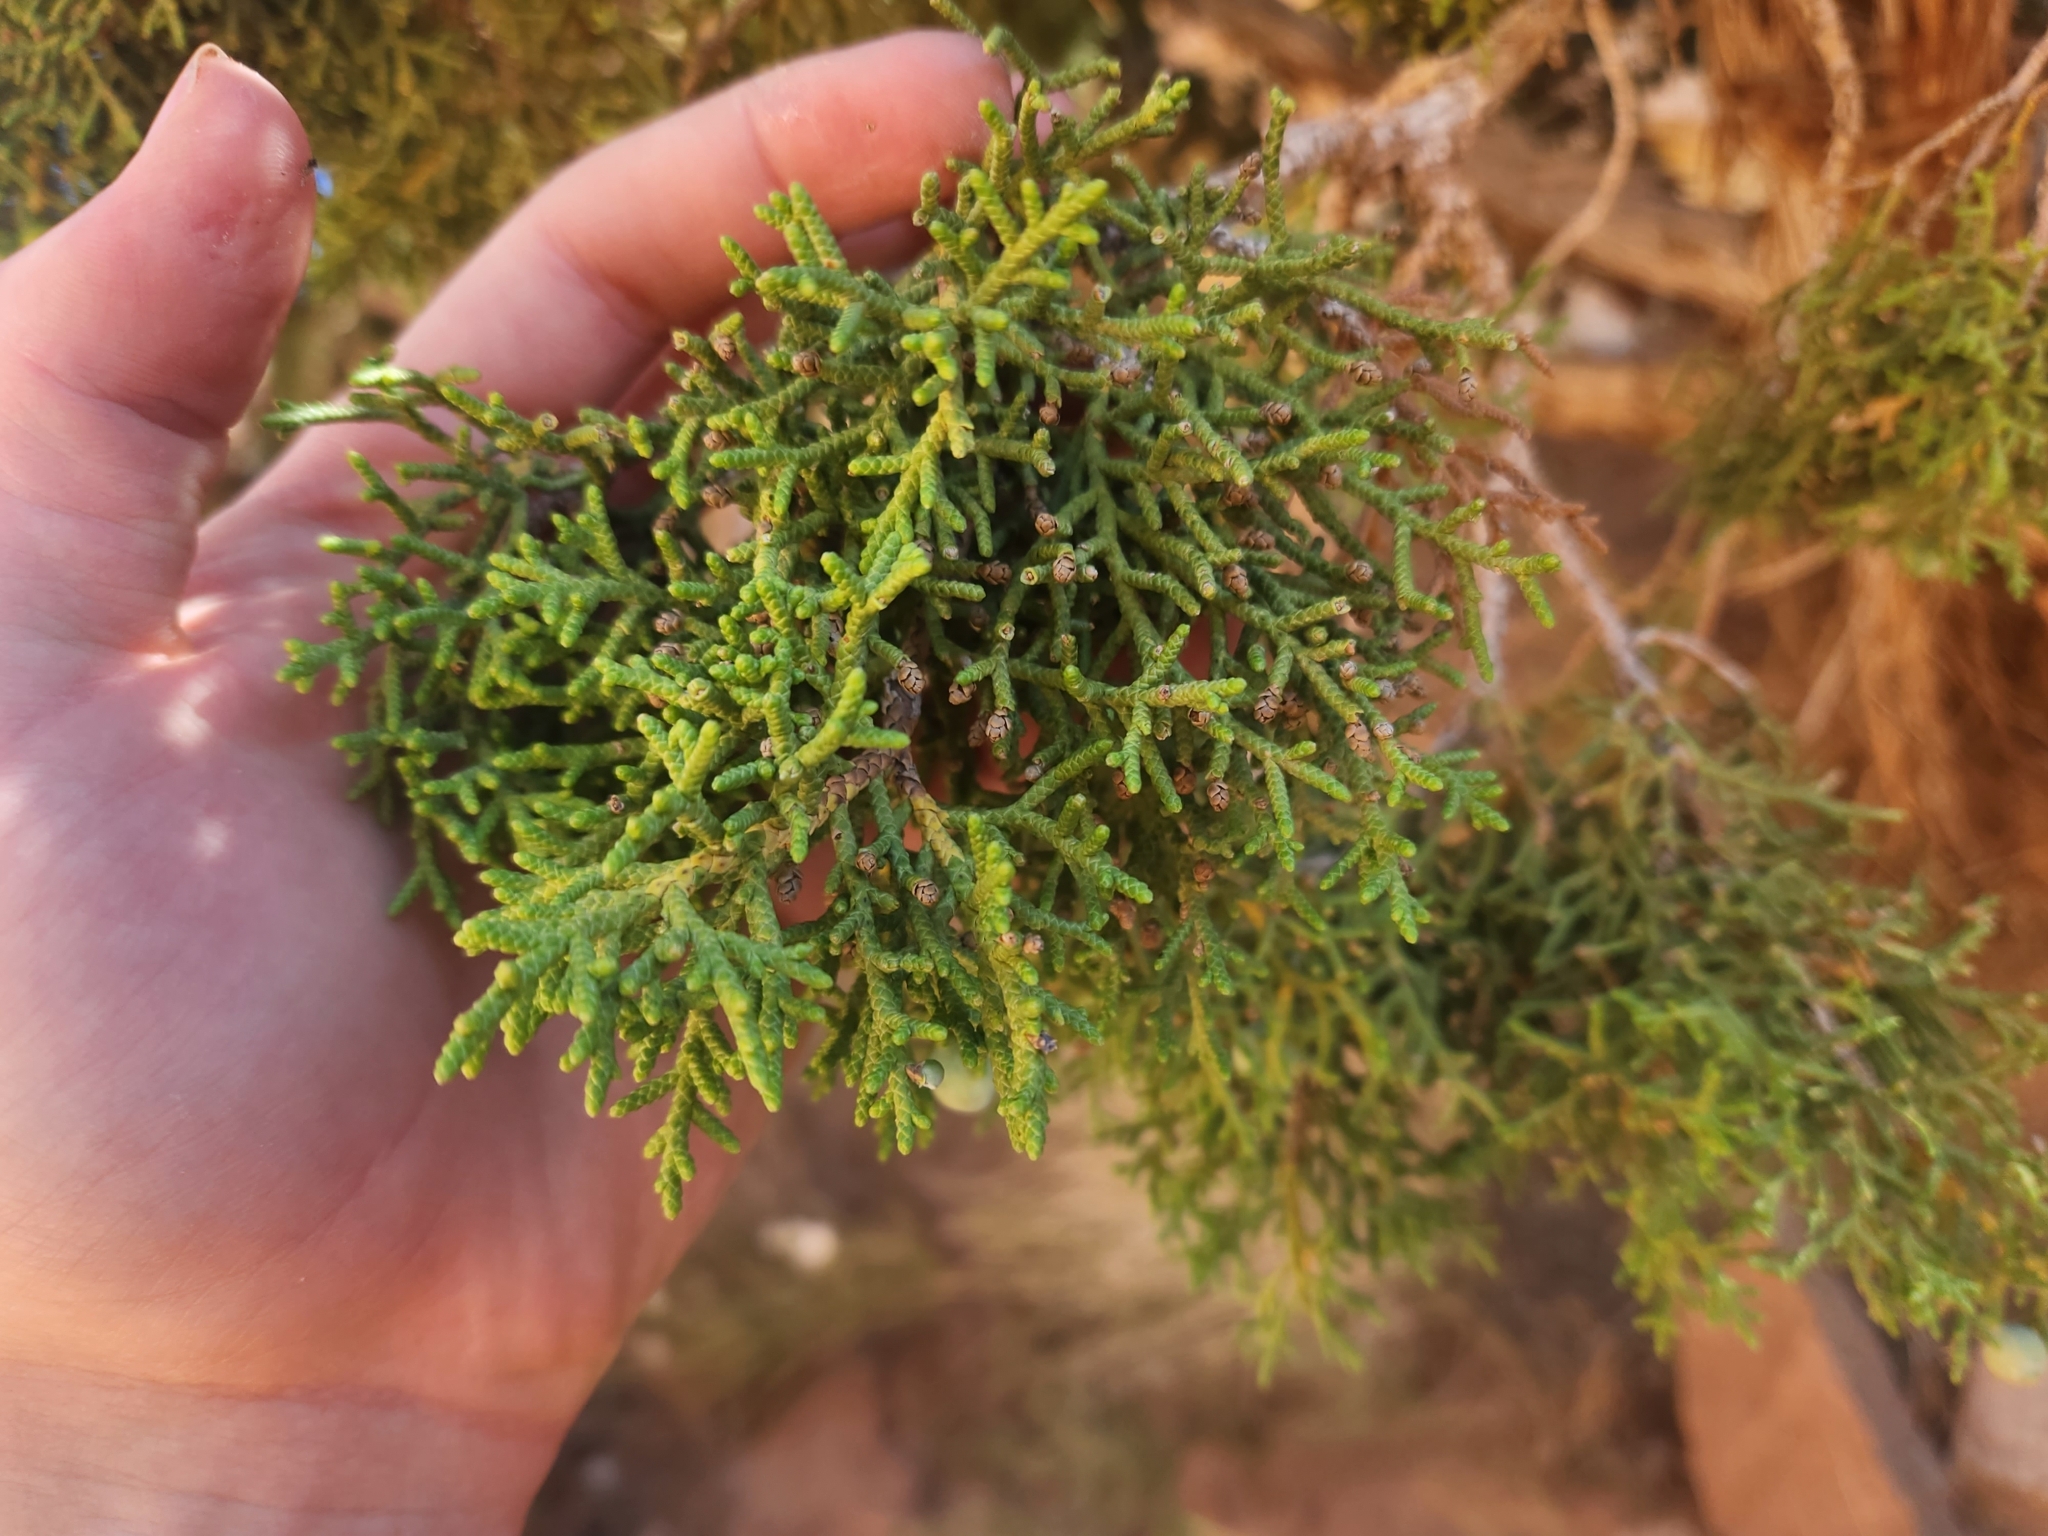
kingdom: Plantae
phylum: Tracheophyta
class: Pinopsida
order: Pinales
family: Cupressaceae
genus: Juniperus
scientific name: Juniperus osteosperma
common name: Utah juniper
